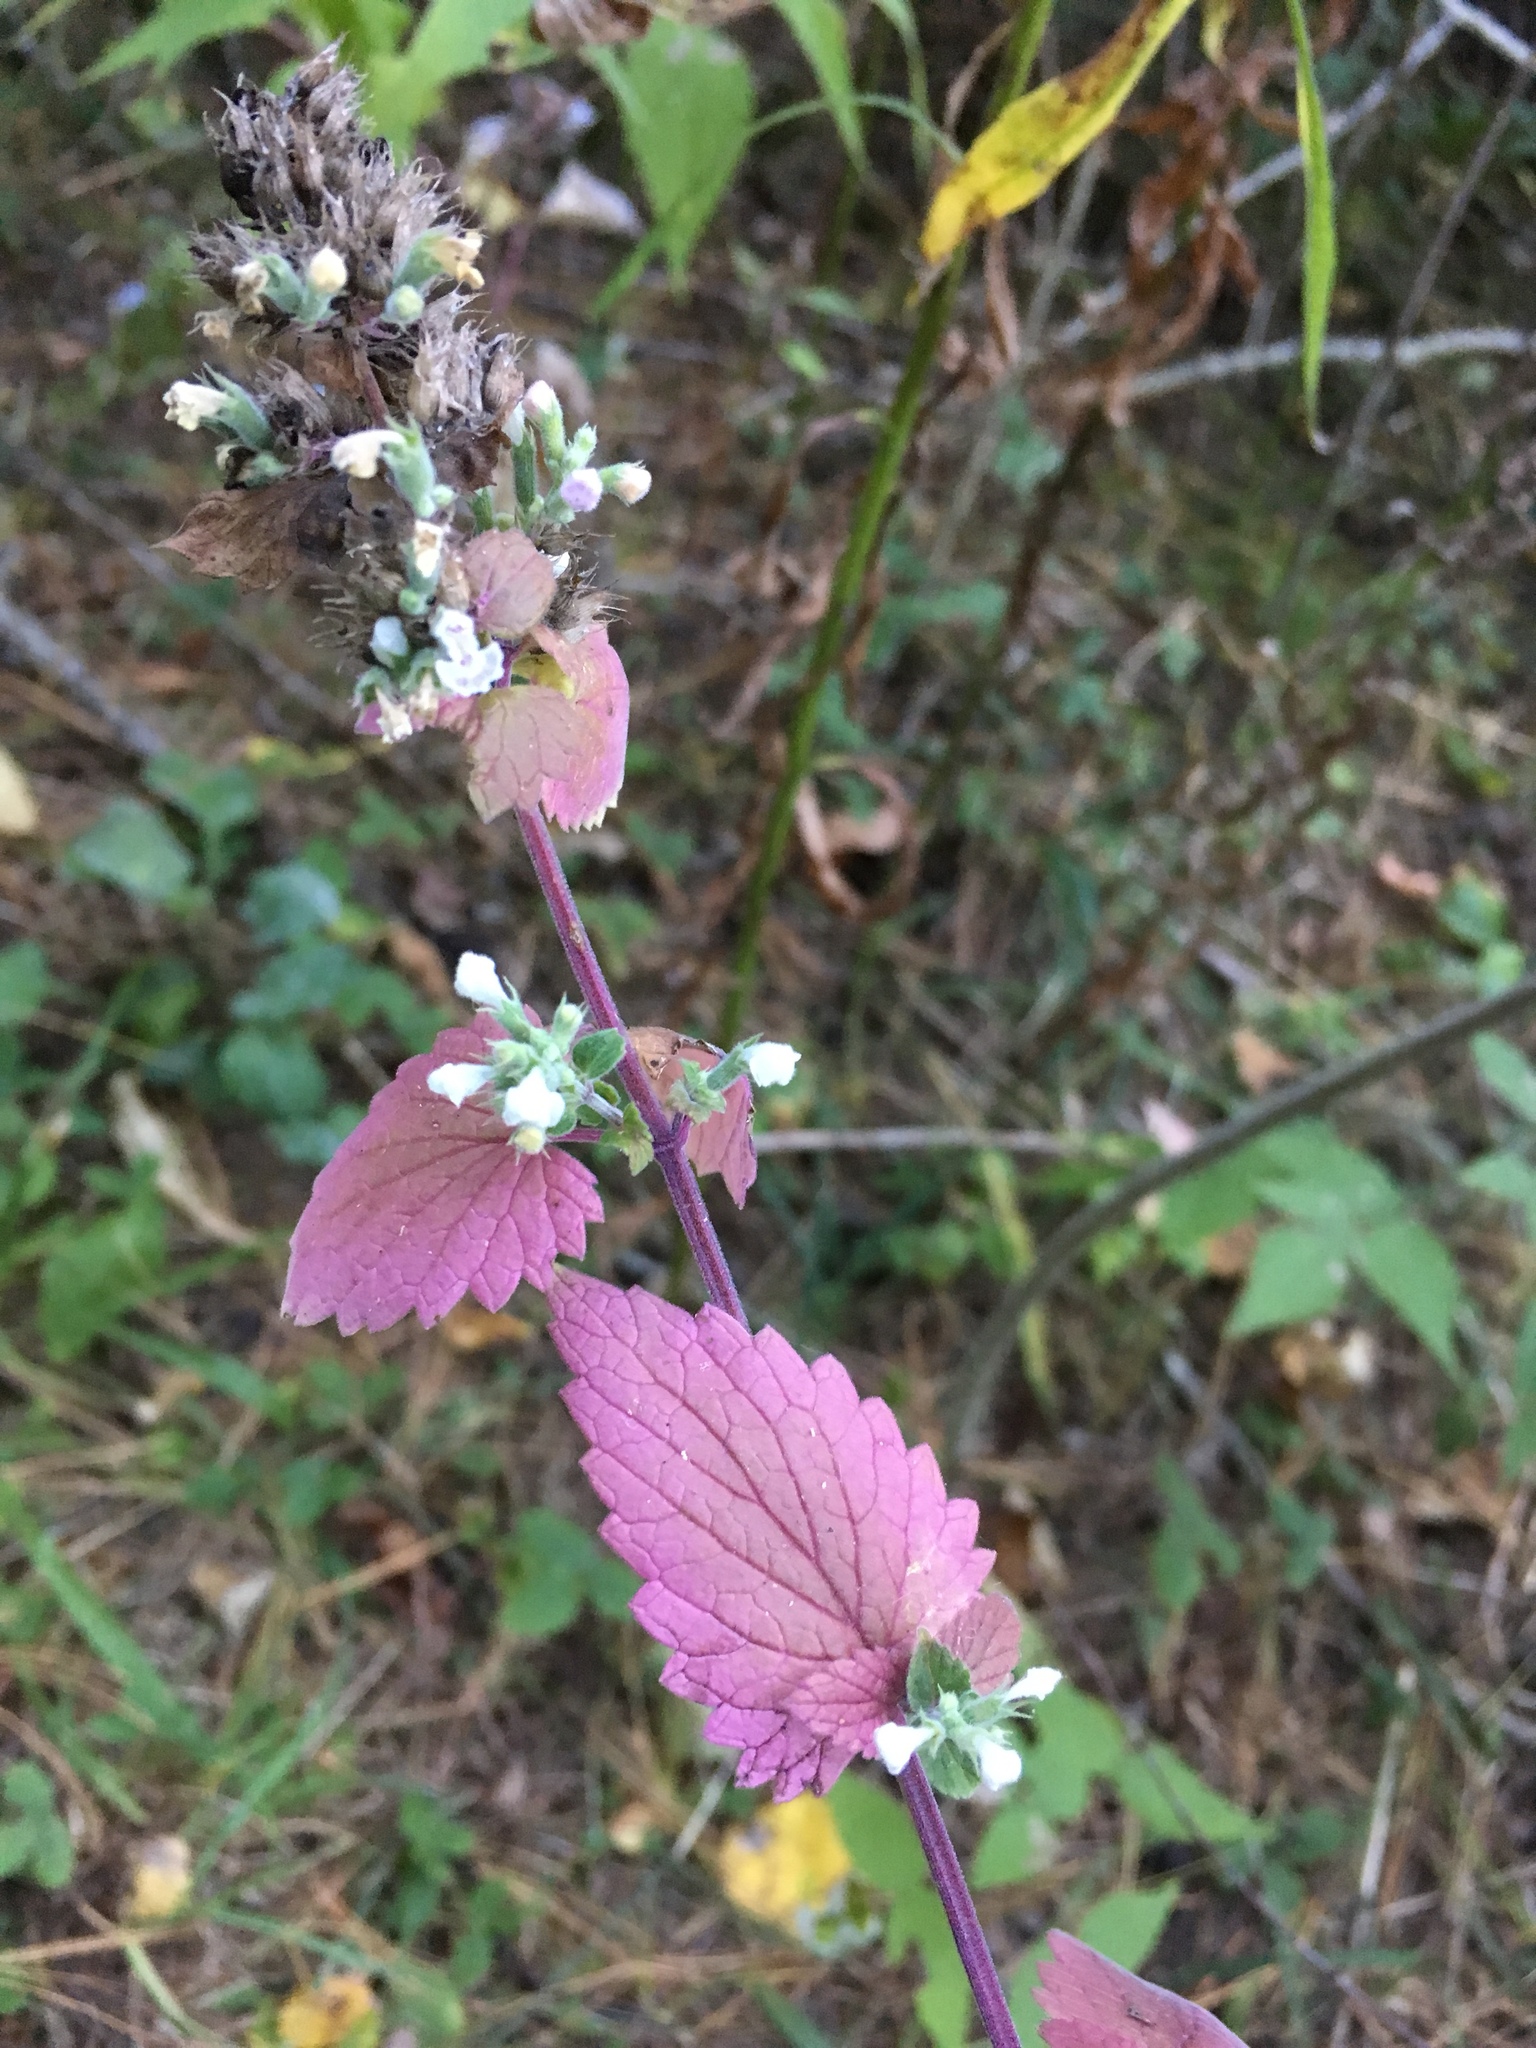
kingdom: Plantae
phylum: Tracheophyta
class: Magnoliopsida
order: Lamiales
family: Lamiaceae
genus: Nepeta
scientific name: Nepeta cataria
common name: Catnip
